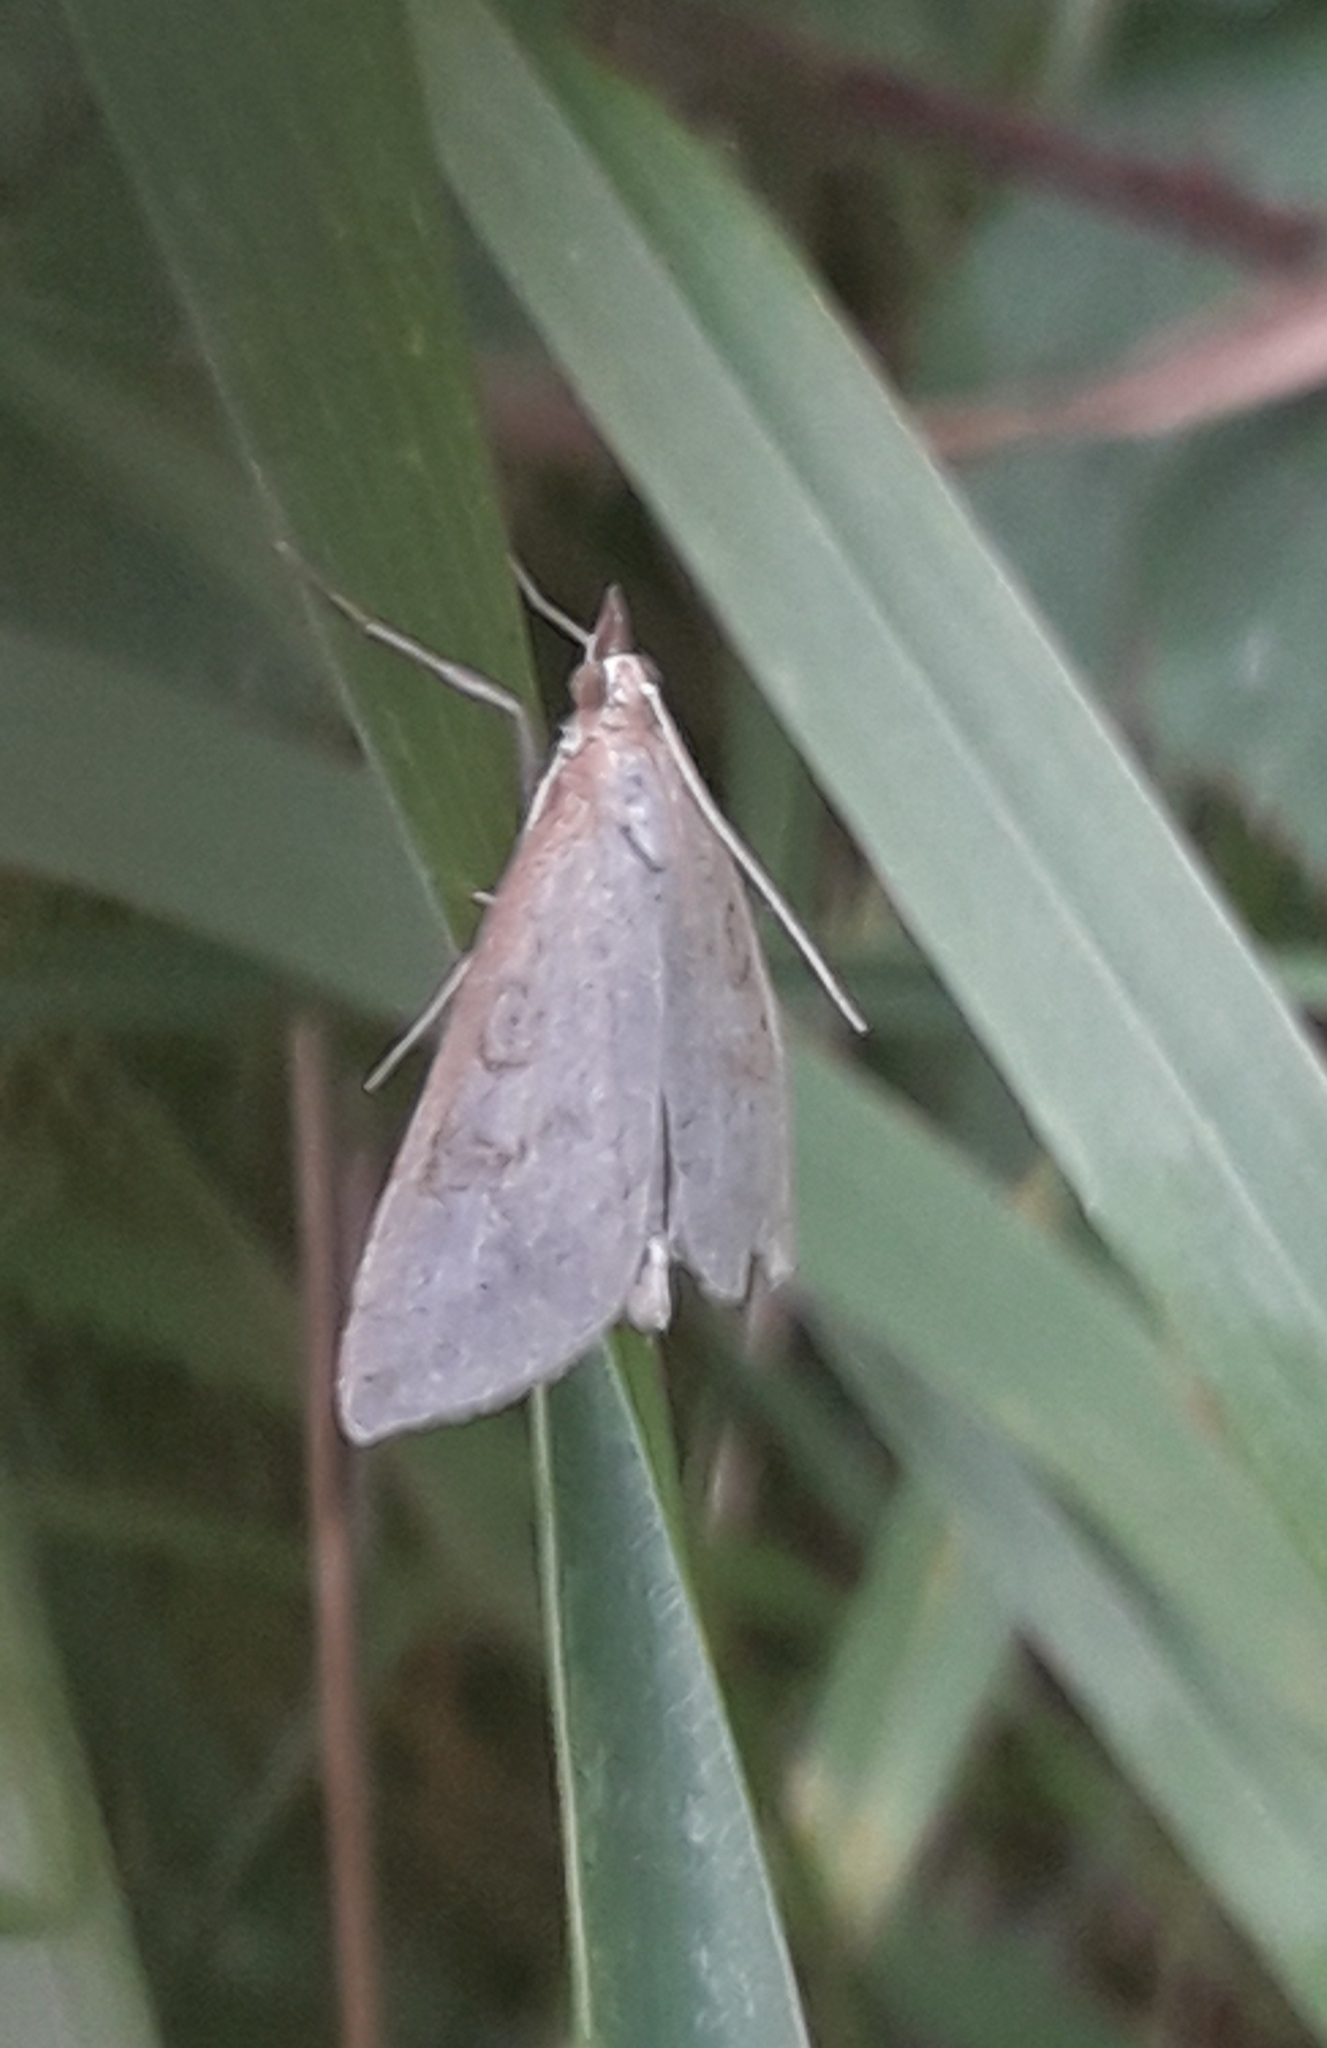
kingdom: Animalia
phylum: Arthropoda
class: Insecta
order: Lepidoptera
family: Crambidae
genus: Udea
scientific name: Udea lutealis
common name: Pale straw pearl
